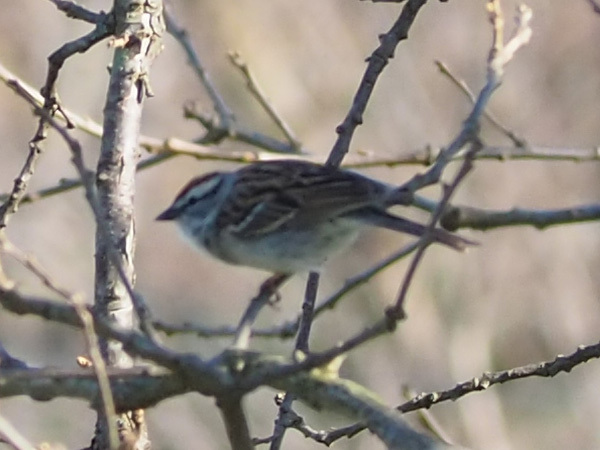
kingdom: Animalia
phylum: Chordata
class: Aves
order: Passeriformes
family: Passerellidae
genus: Spizella
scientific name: Spizella passerina
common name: Chipping sparrow
